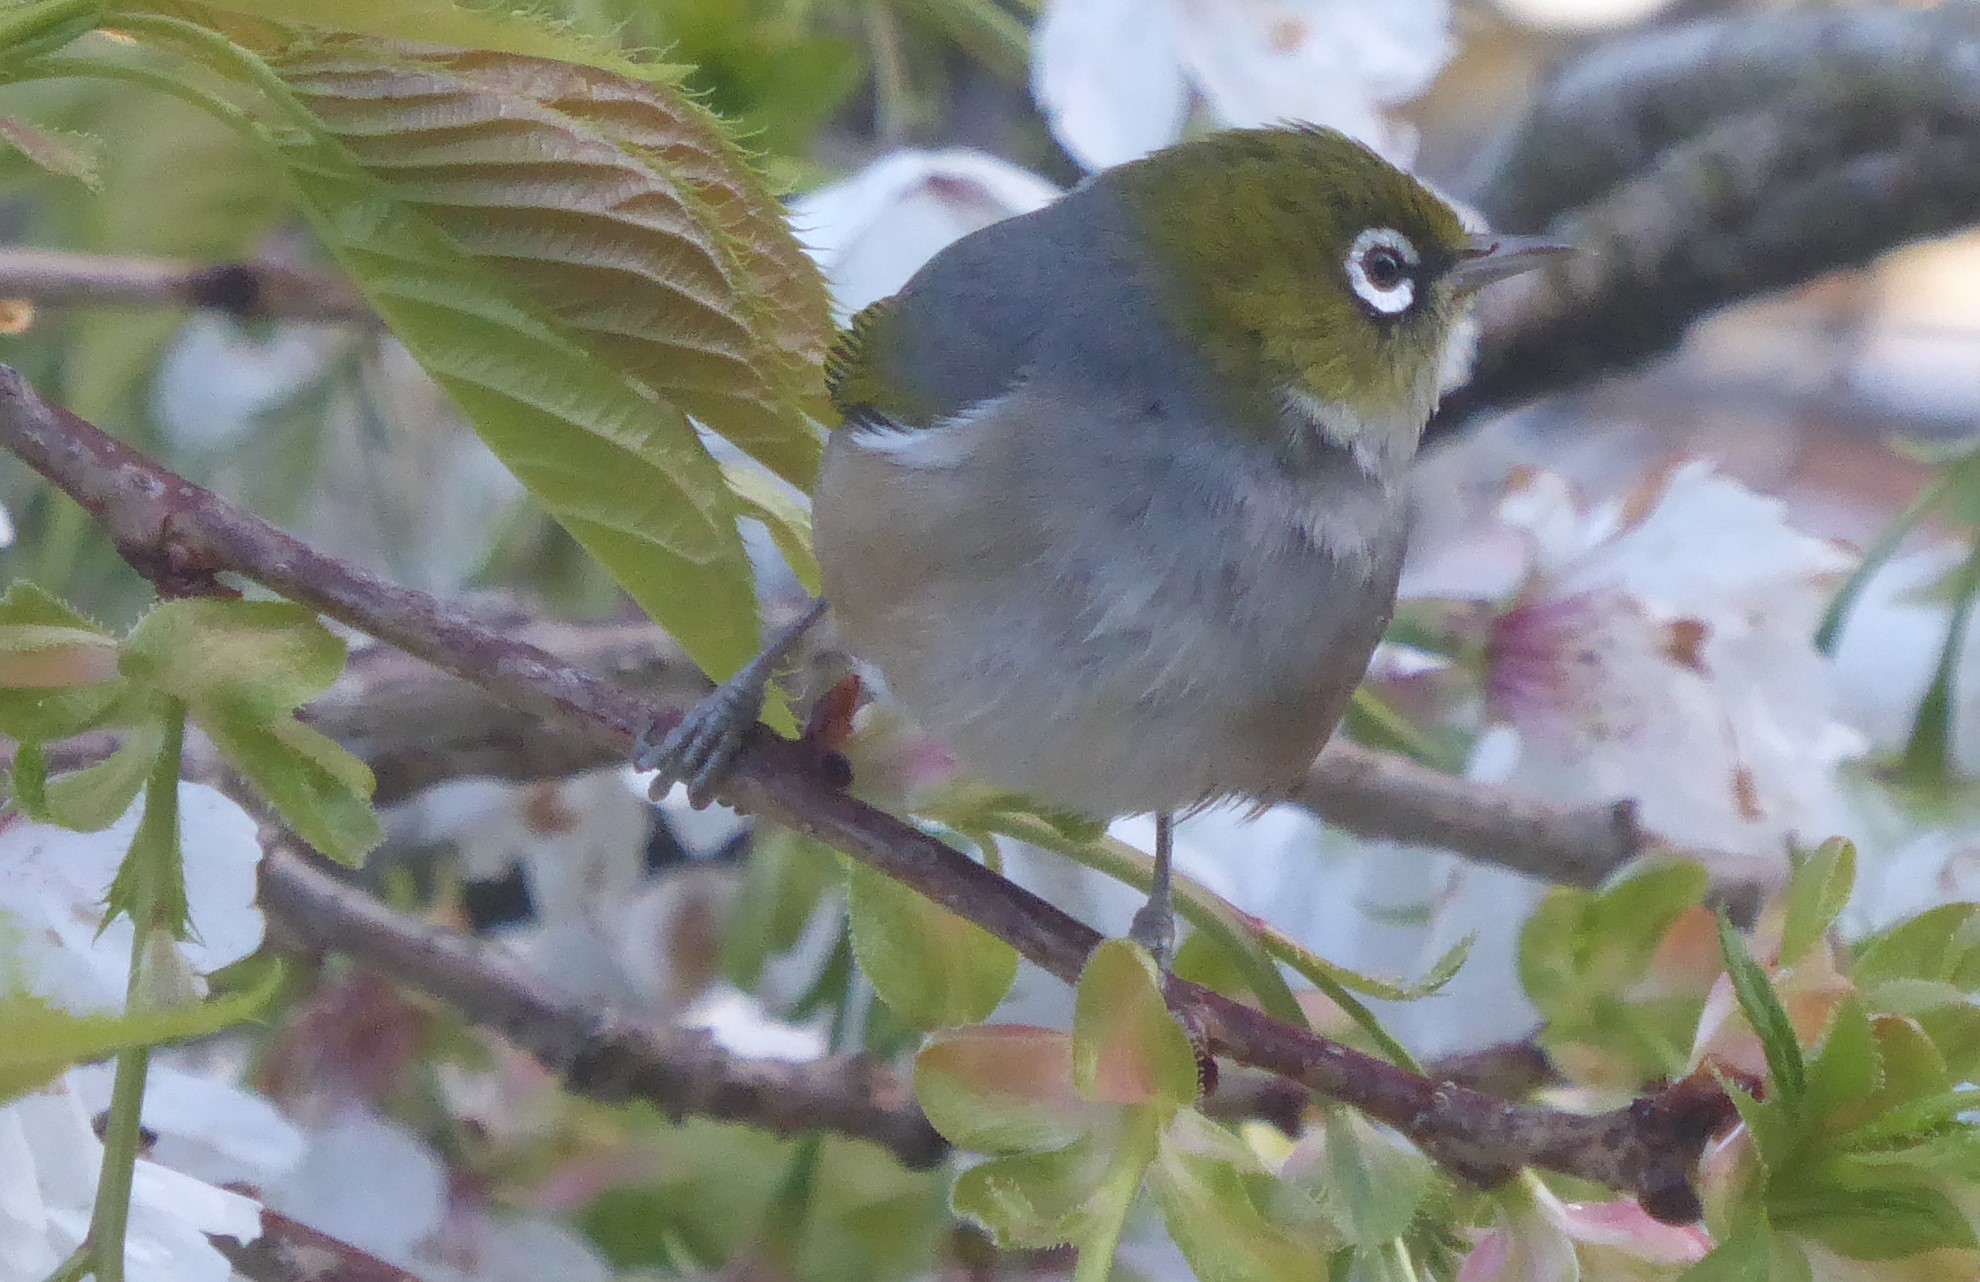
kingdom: Animalia
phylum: Chordata
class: Aves
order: Passeriformes
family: Zosteropidae
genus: Zosterops
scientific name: Zosterops lateralis
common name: Silvereye
